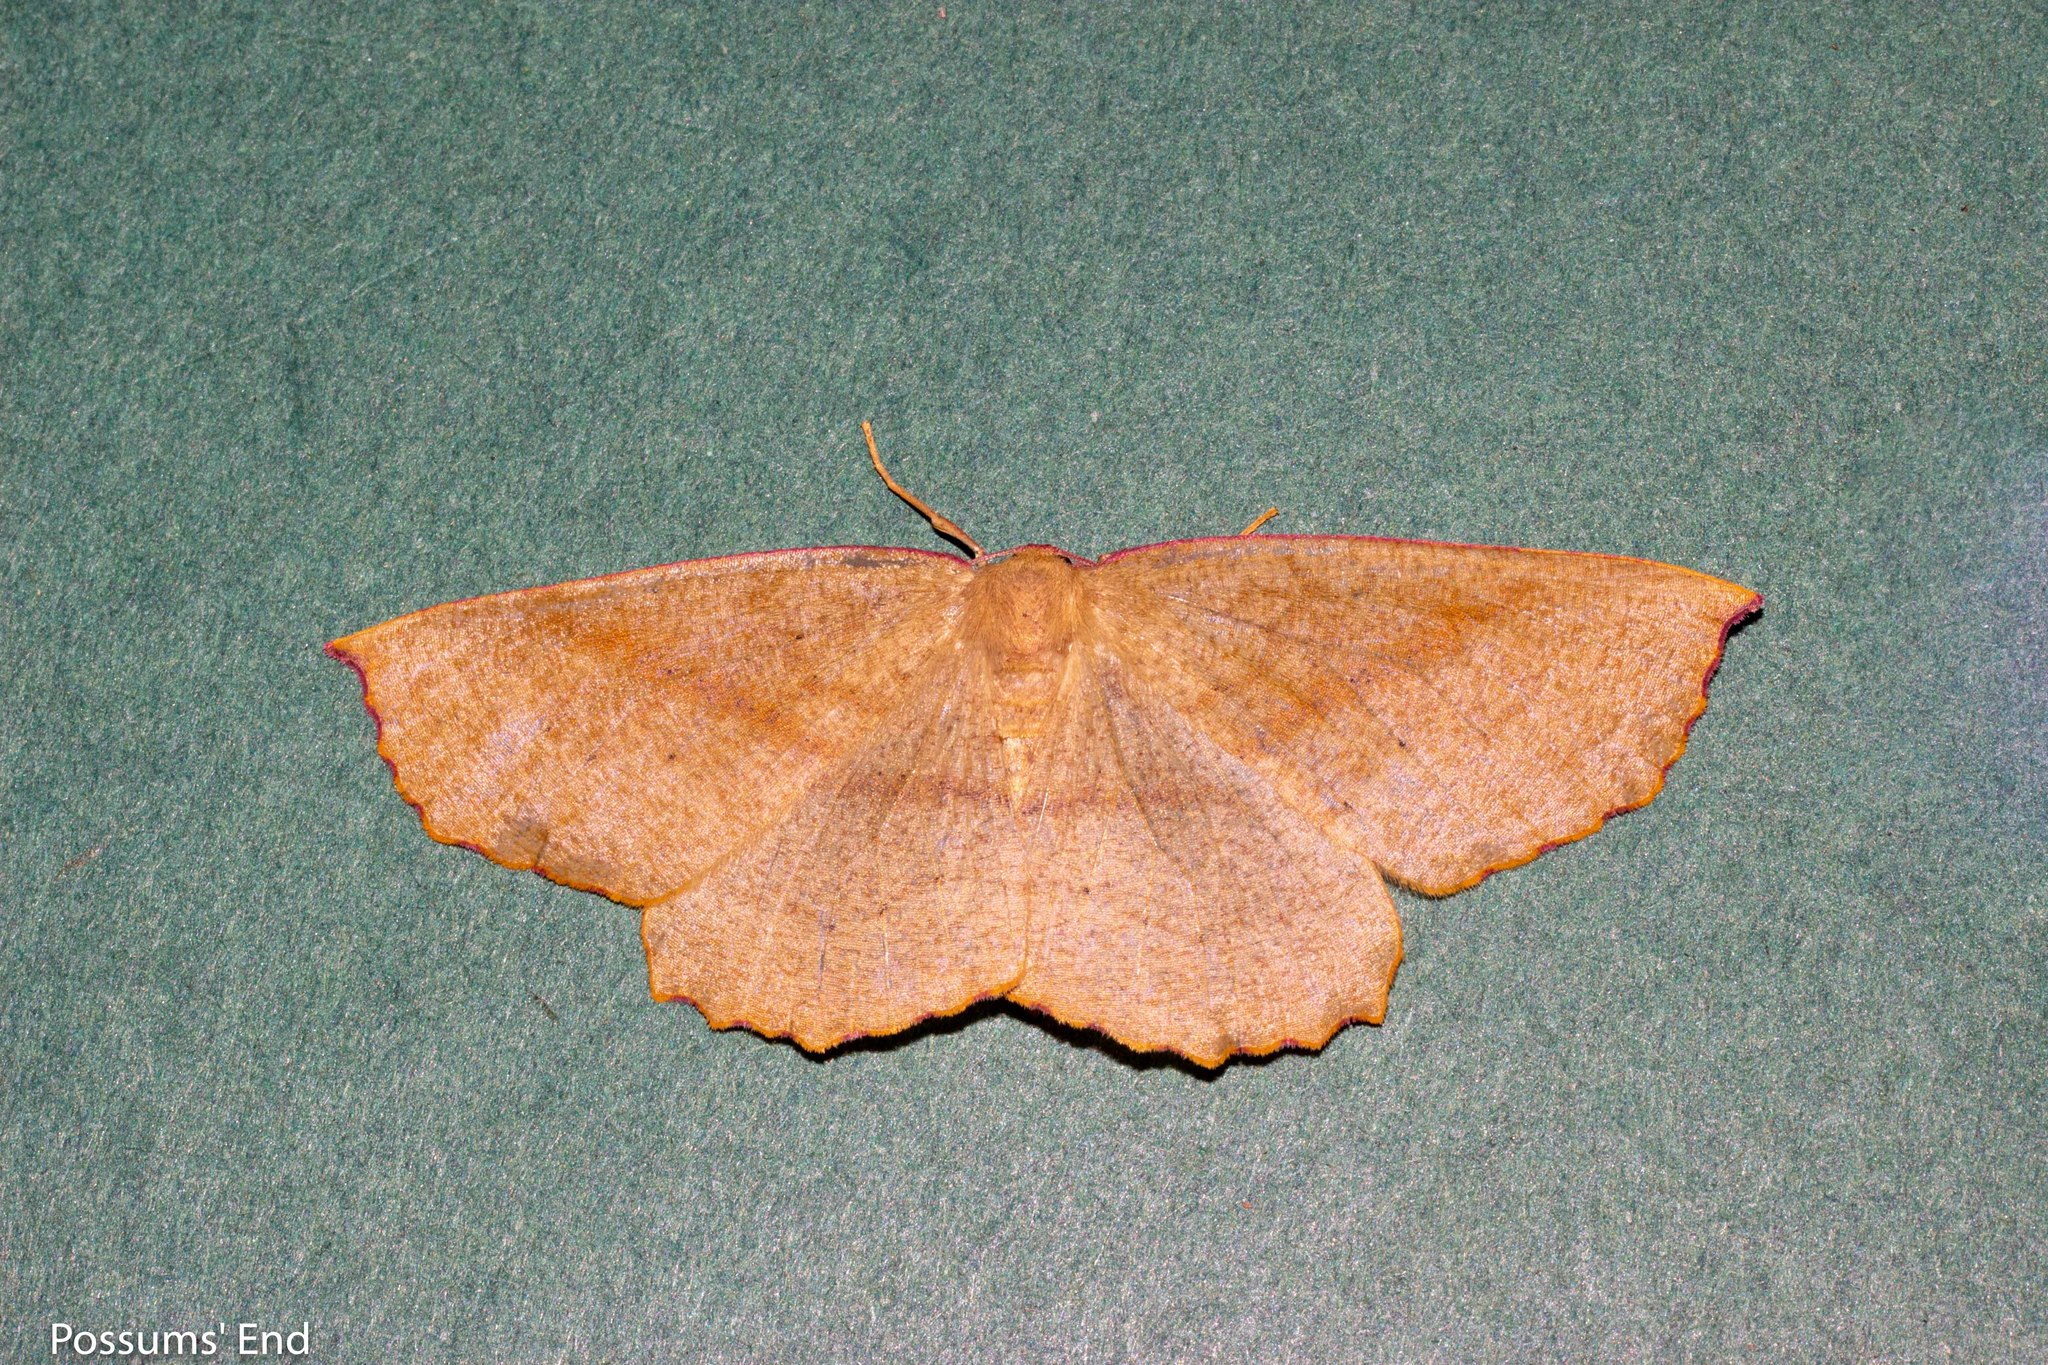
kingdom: Animalia
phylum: Arthropoda
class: Insecta
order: Lepidoptera
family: Geometridae
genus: Xyridacma
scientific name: Xyridacma alectoraria
